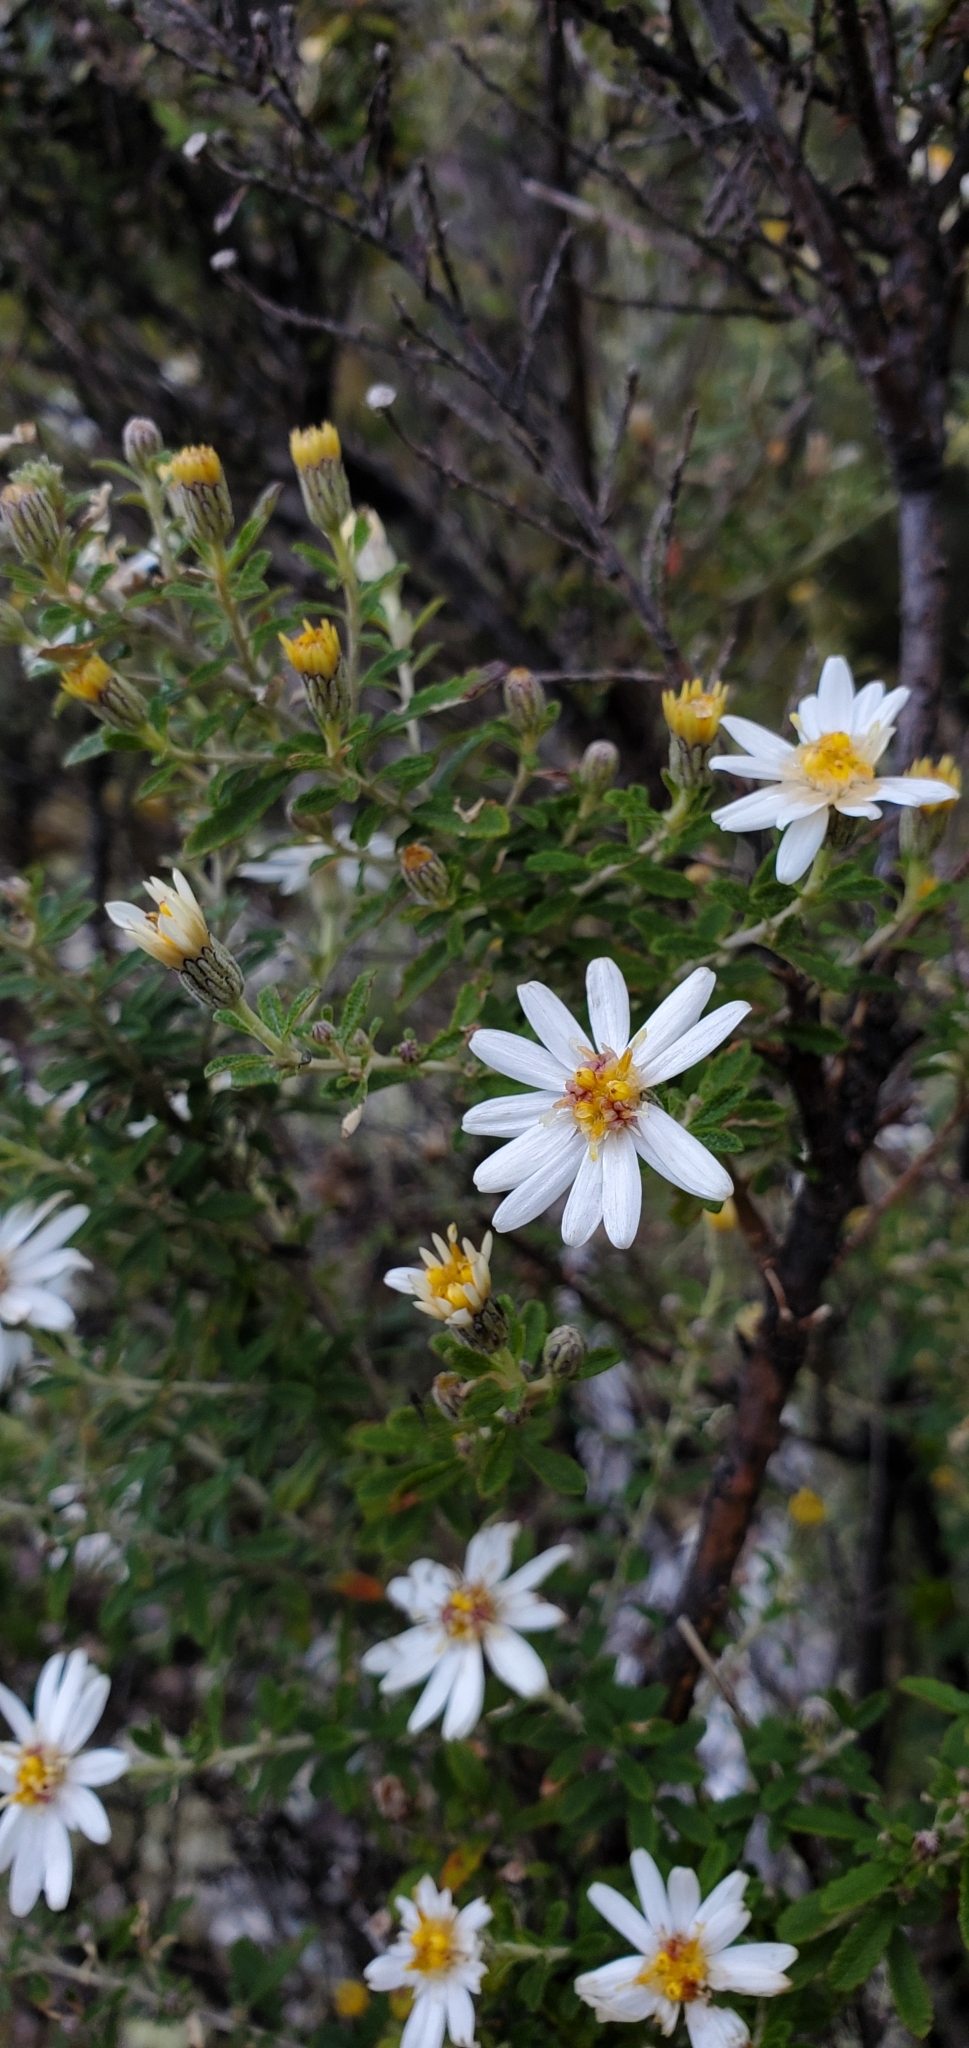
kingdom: Plantae
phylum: Tracheophyta
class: Magnoliopsida
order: Asterales
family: Asteraceae
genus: Olearia
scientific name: Olearia phlogopappa
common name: Alpine daisybush
